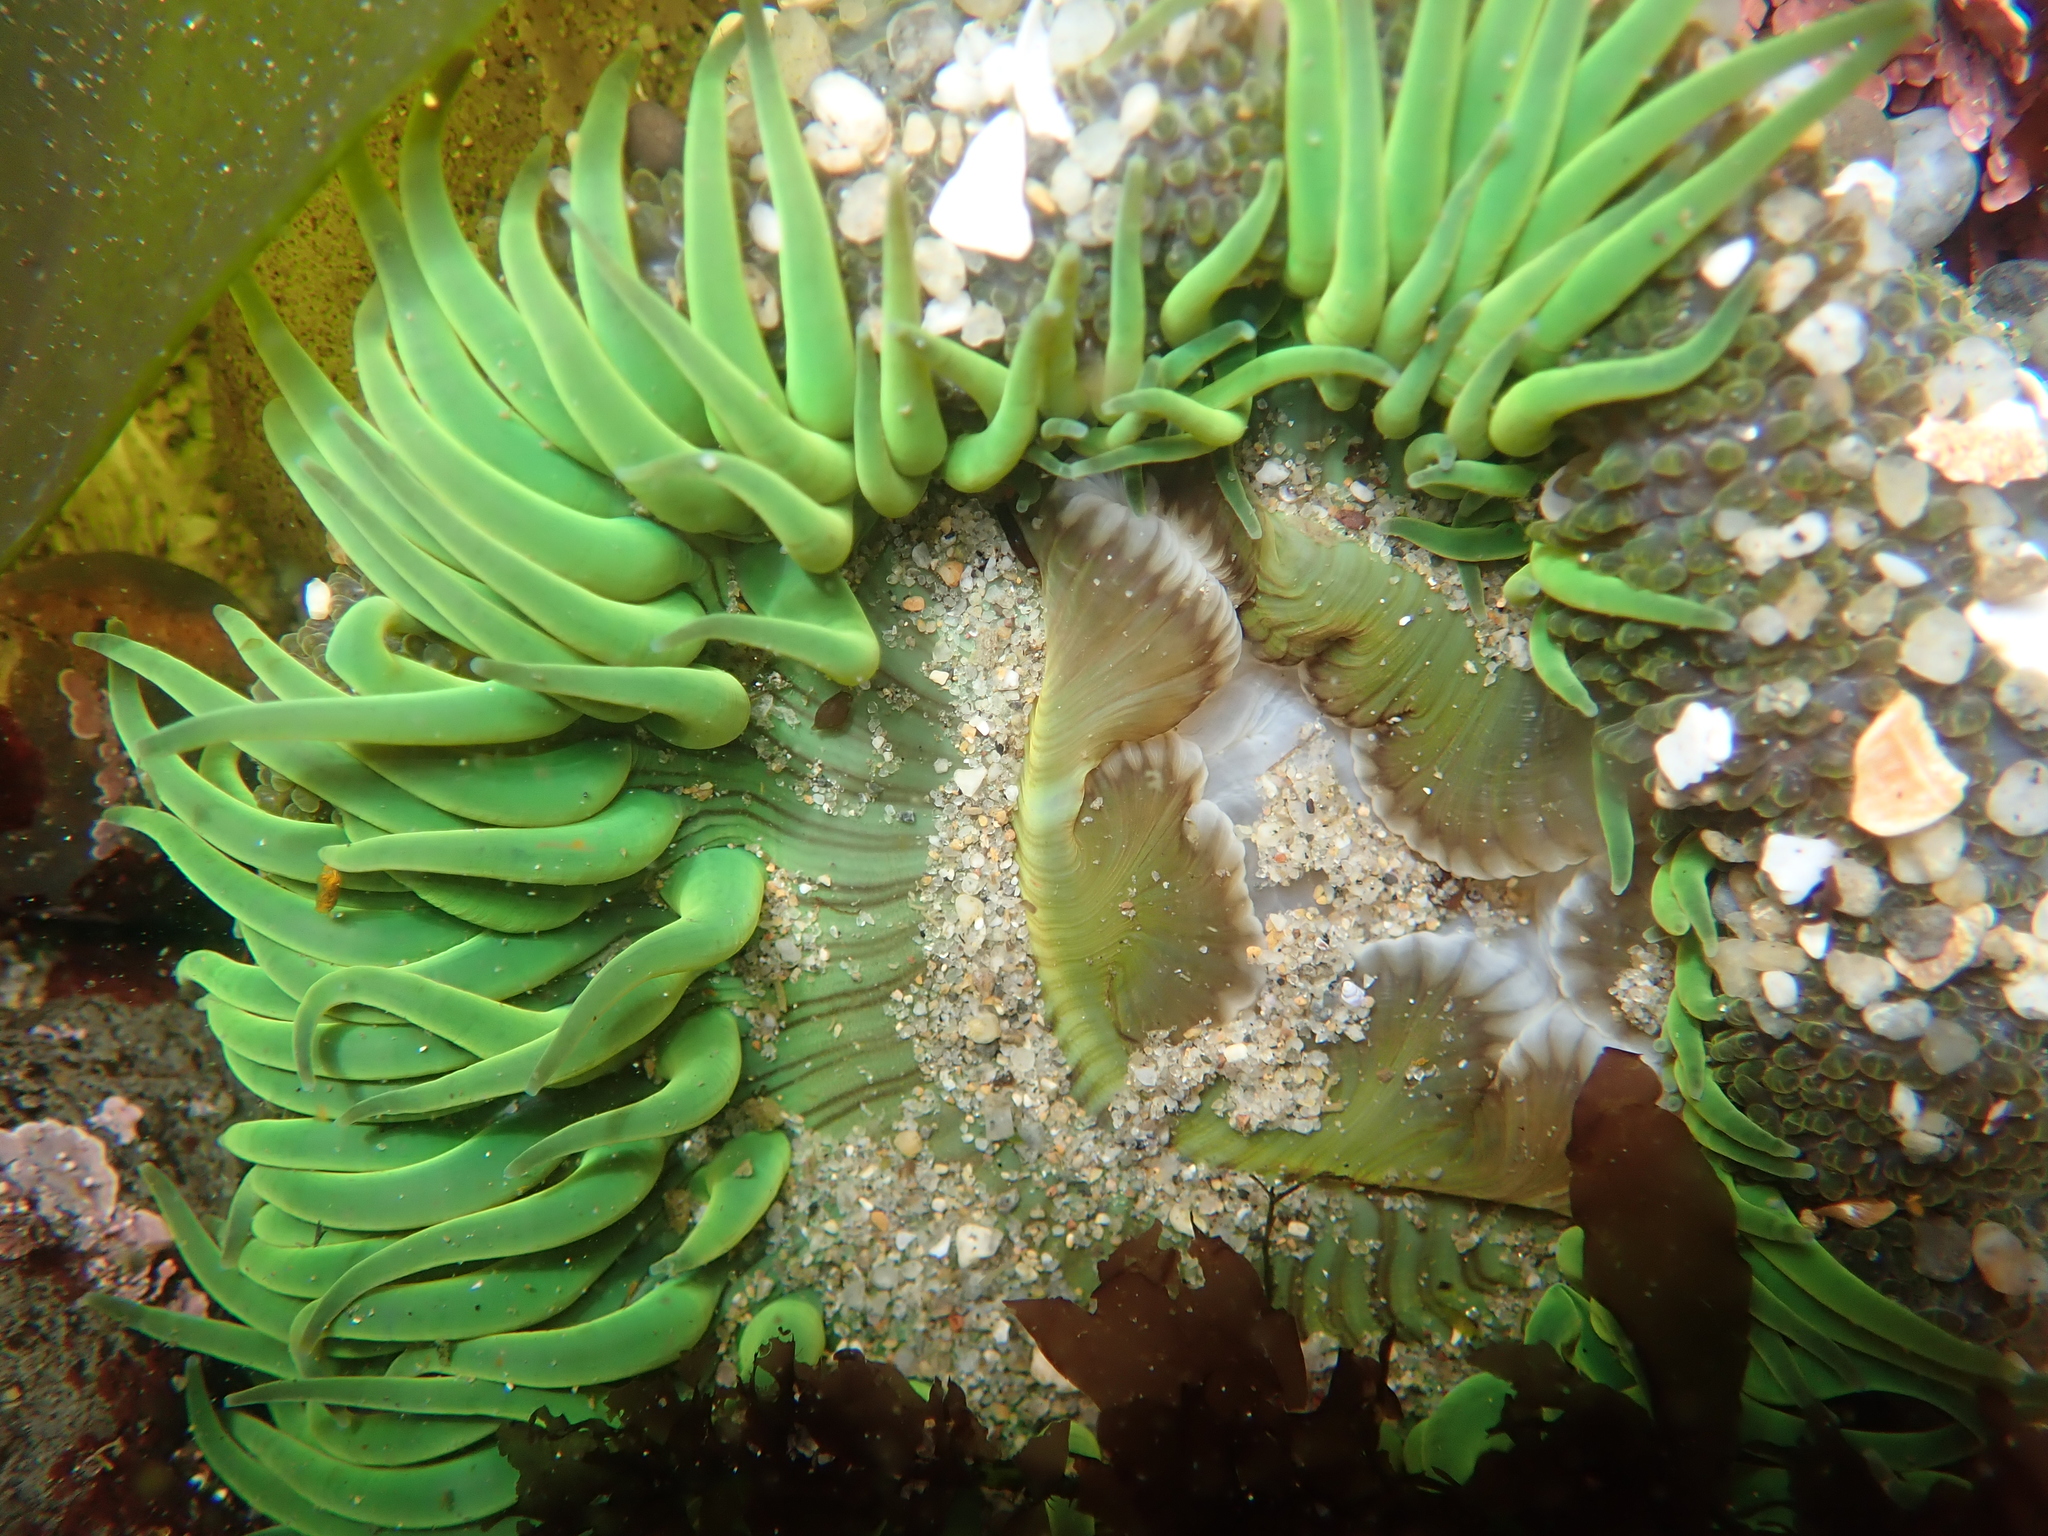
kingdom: Animalia
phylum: Cnidaria
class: Anthozoa
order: Actiniaria
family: Actiniidae
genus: Anthopleura
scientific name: Anthopleura sola
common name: Sun anemone
